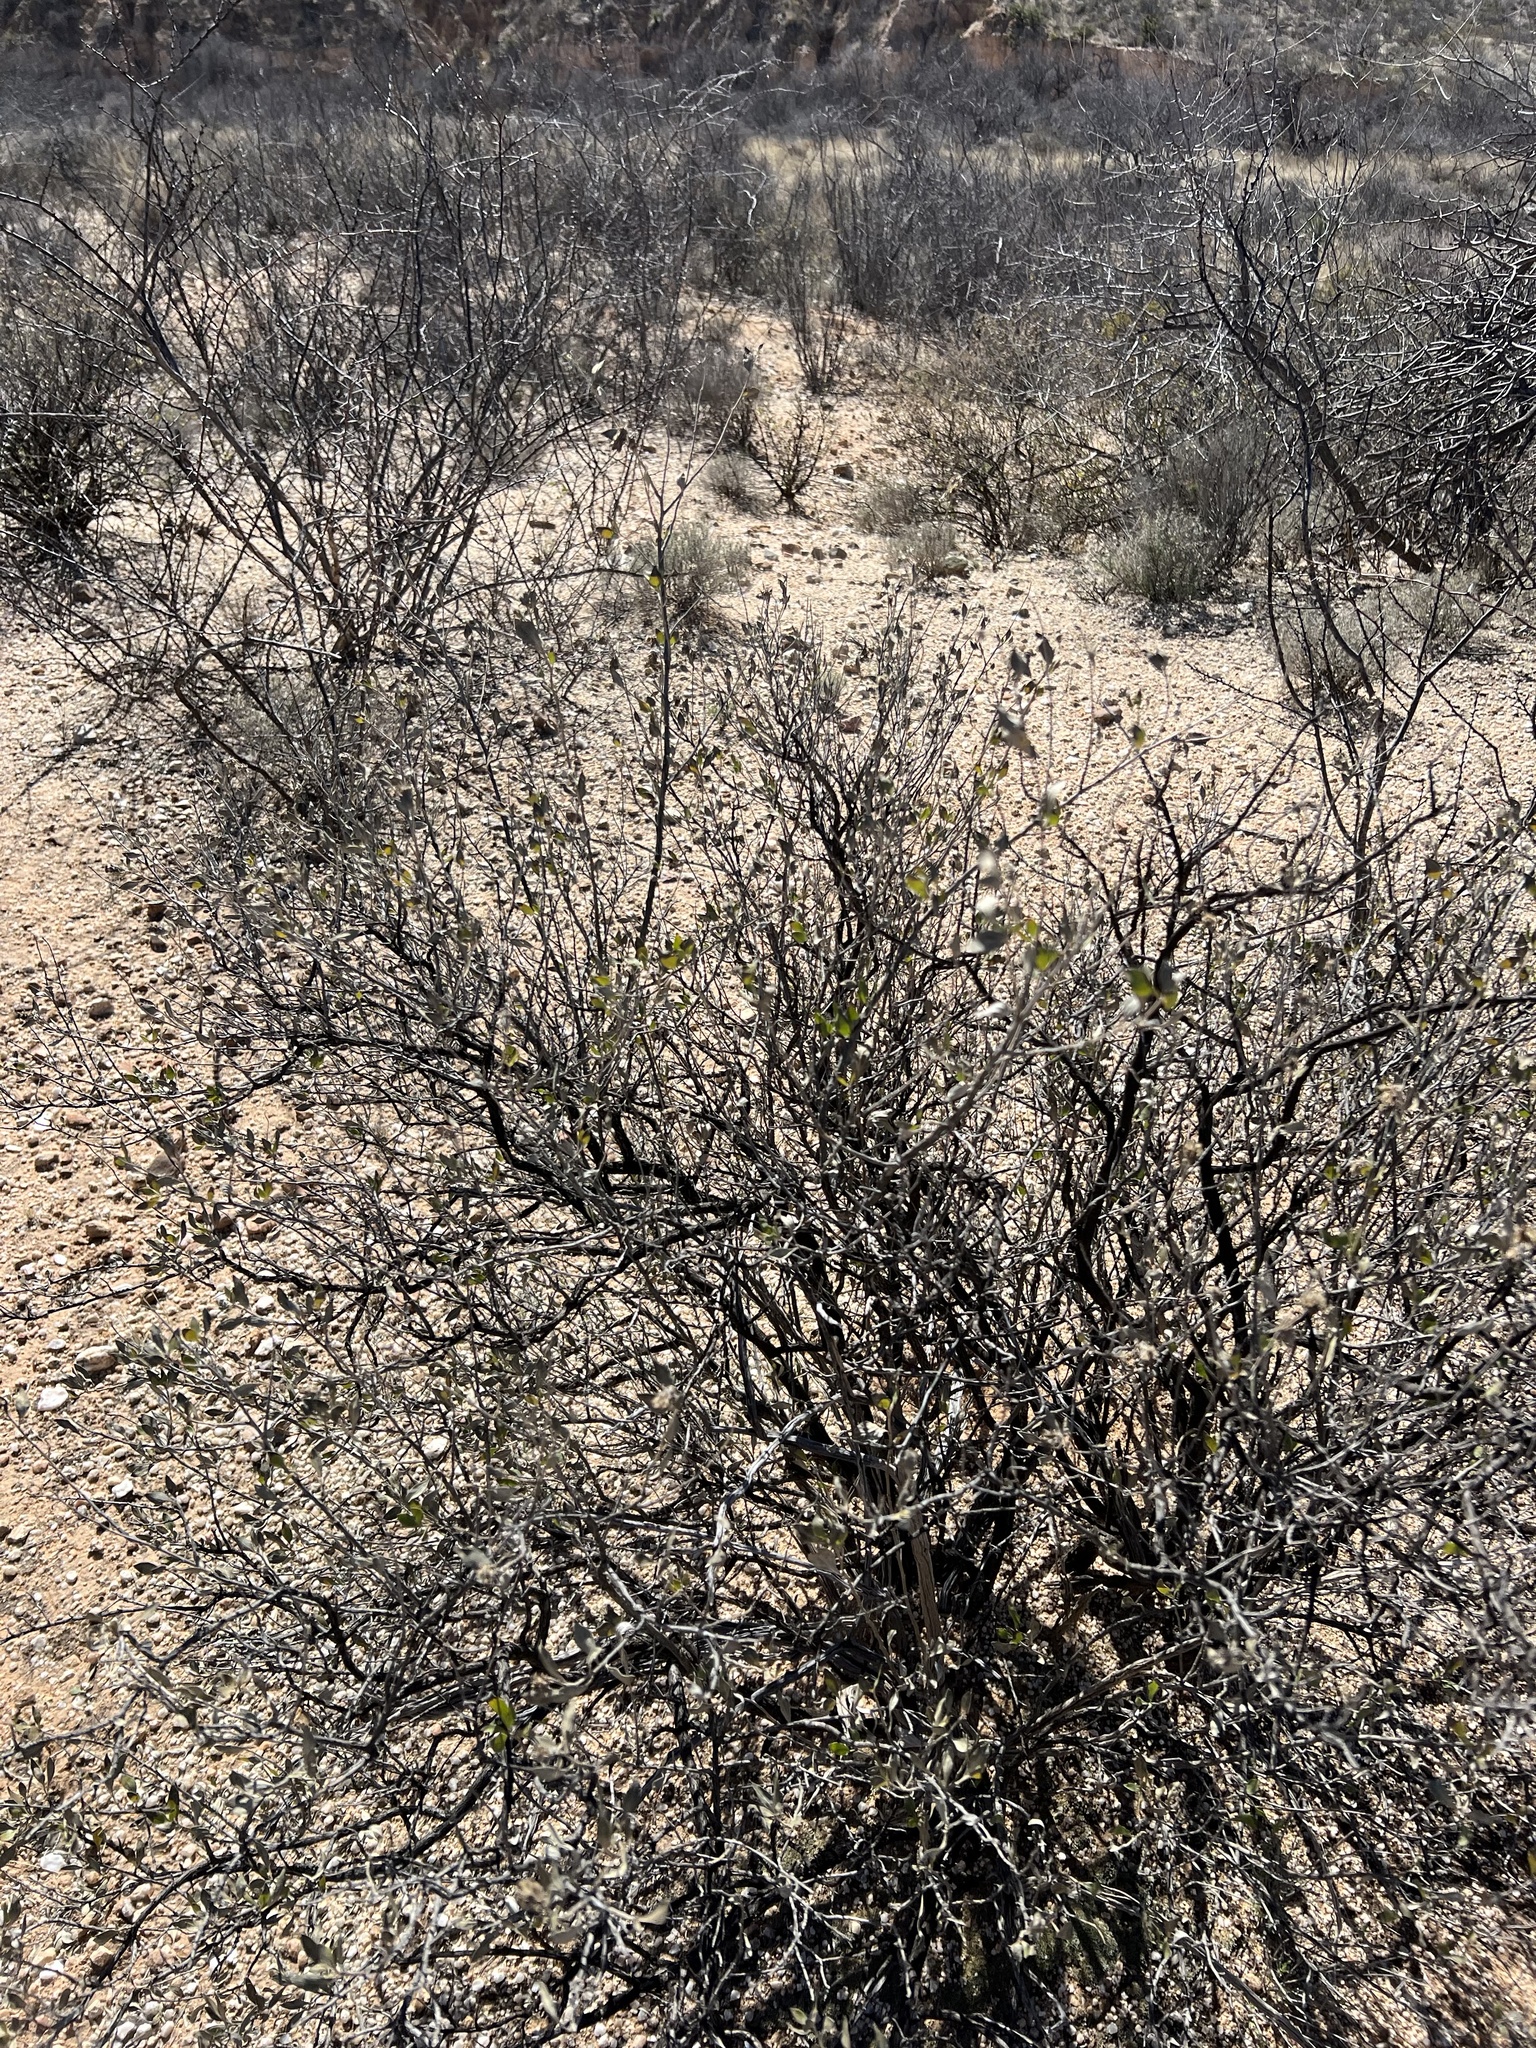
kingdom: Plantae
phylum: Tracheophyta
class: Magnoliopsida
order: Asterales
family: Asteraceae
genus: Flourensia
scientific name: Flourensia cernua
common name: Varnishbush
